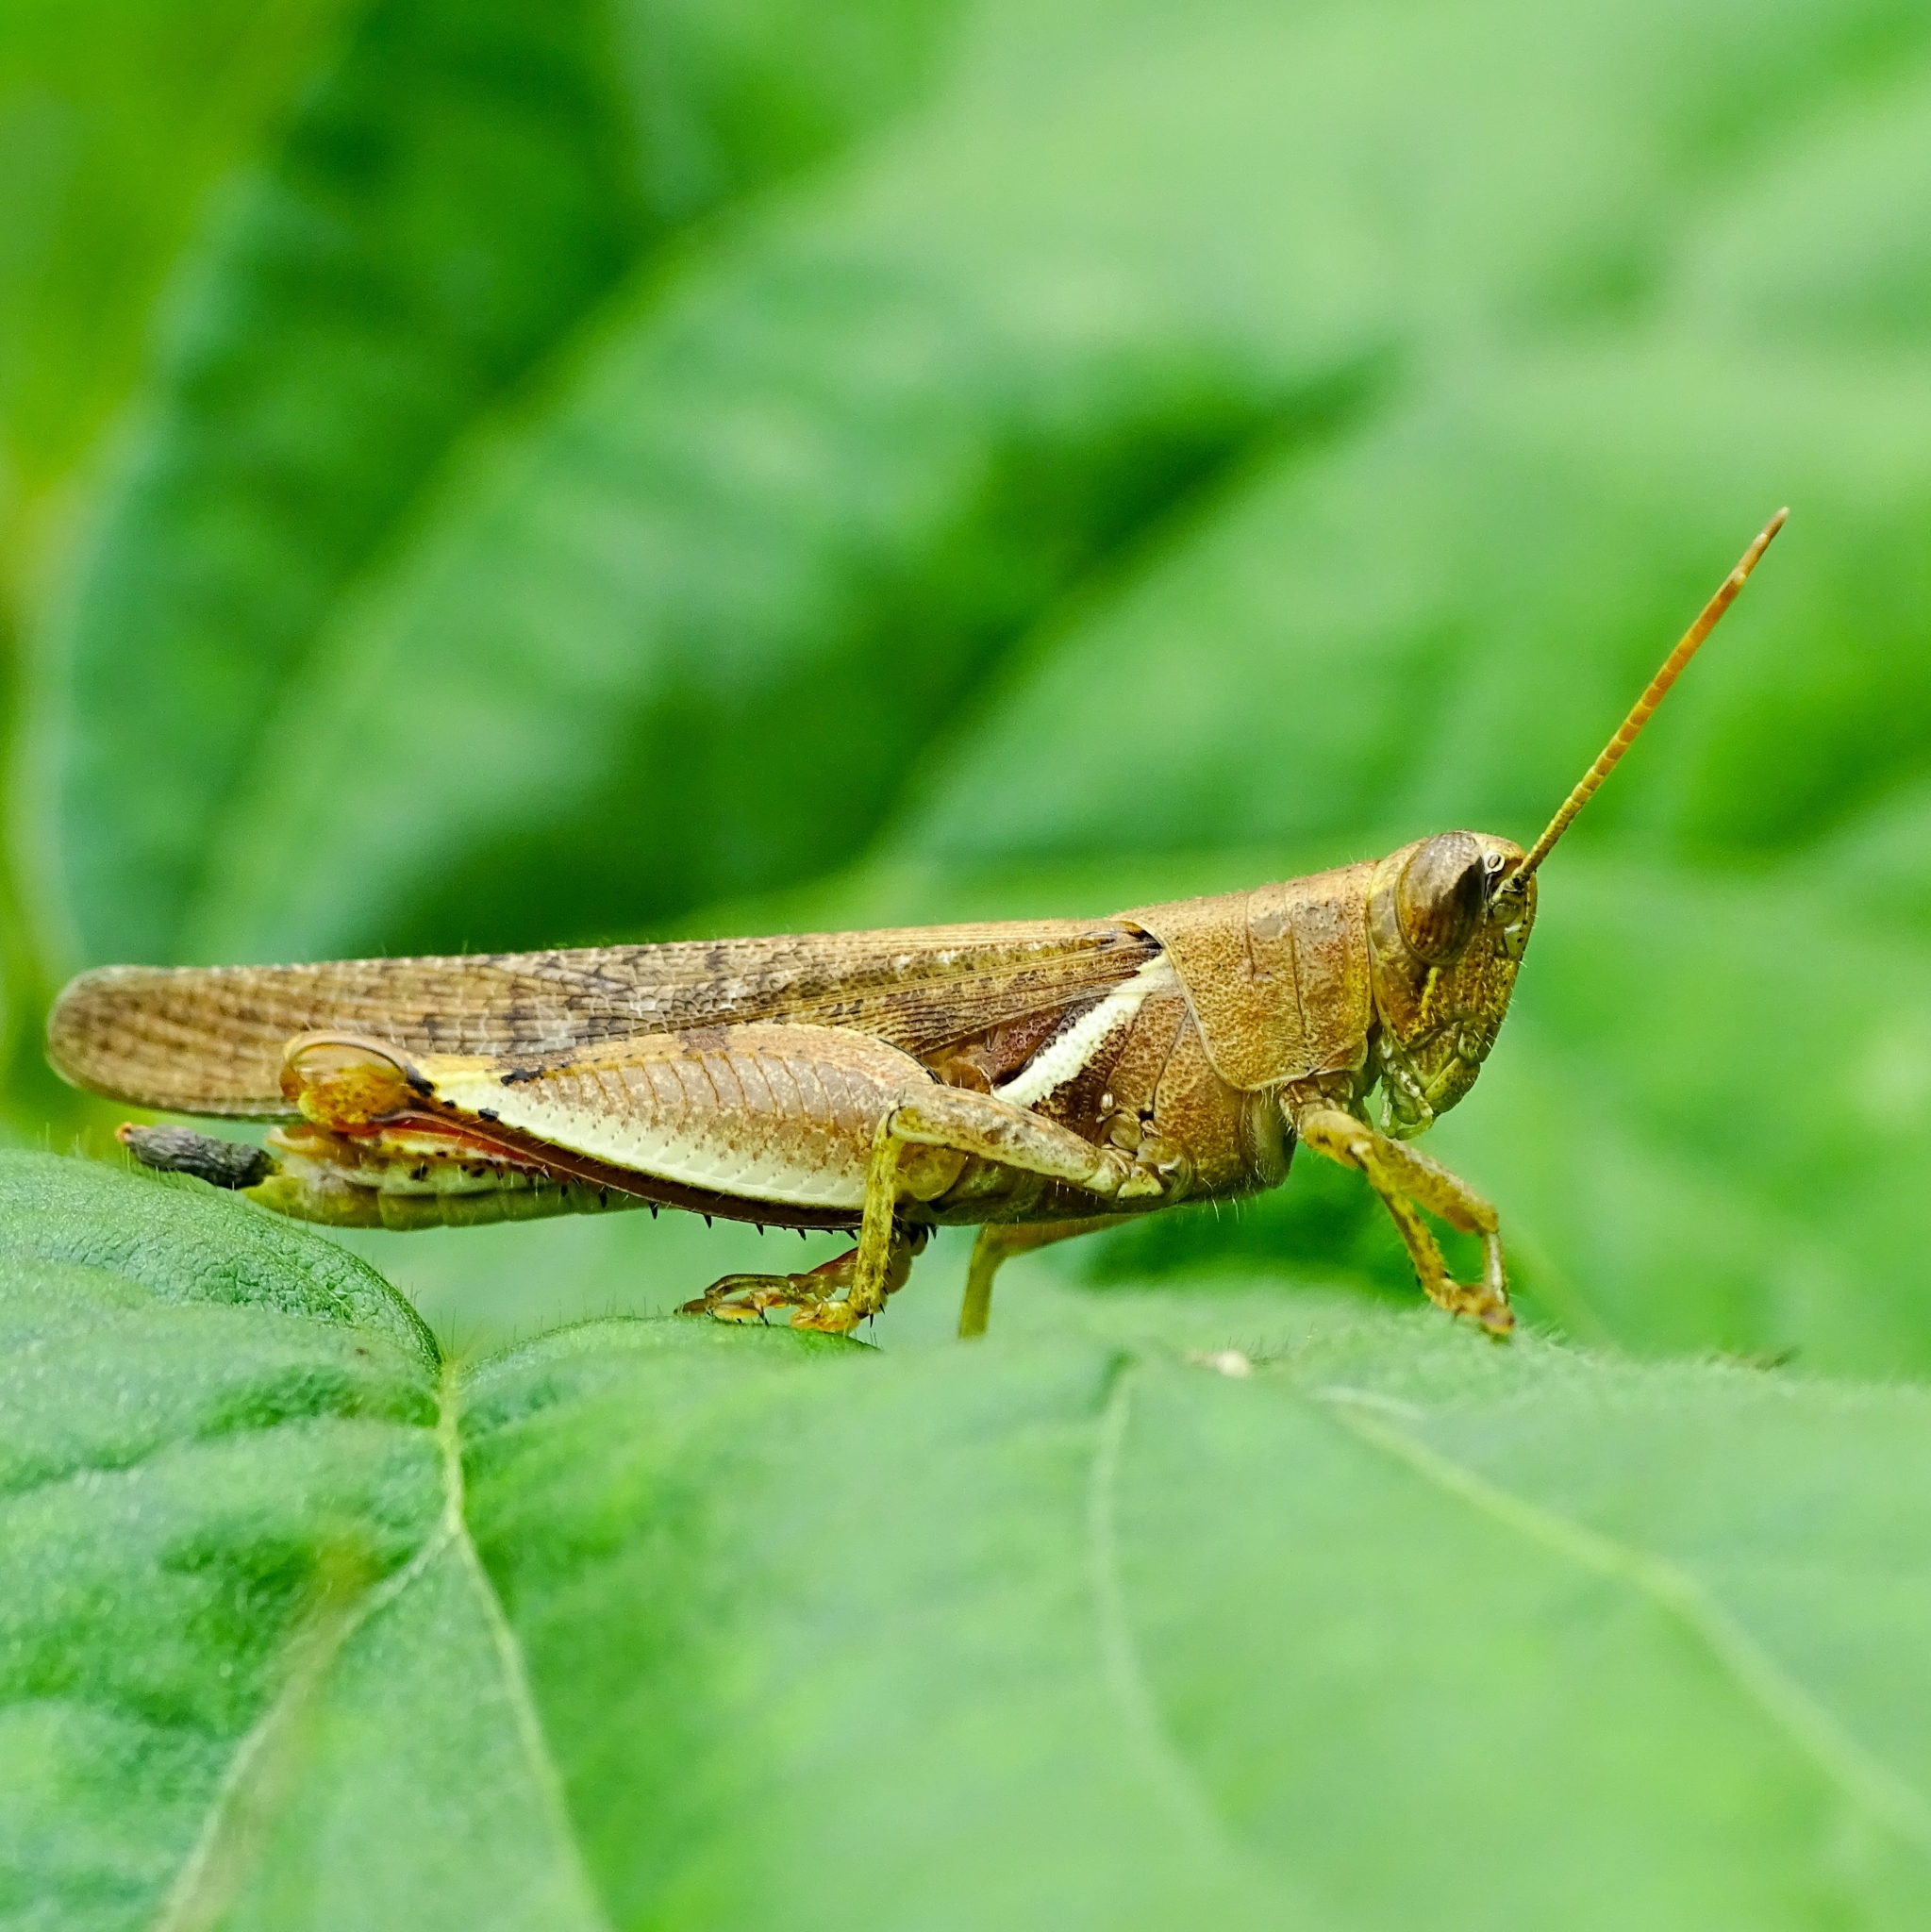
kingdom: Animalia
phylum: Arthropoda
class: Insecta
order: Orthoptera
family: Acrididae
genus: Diabolocatantops
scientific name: Diabolocatantops innotabilis
